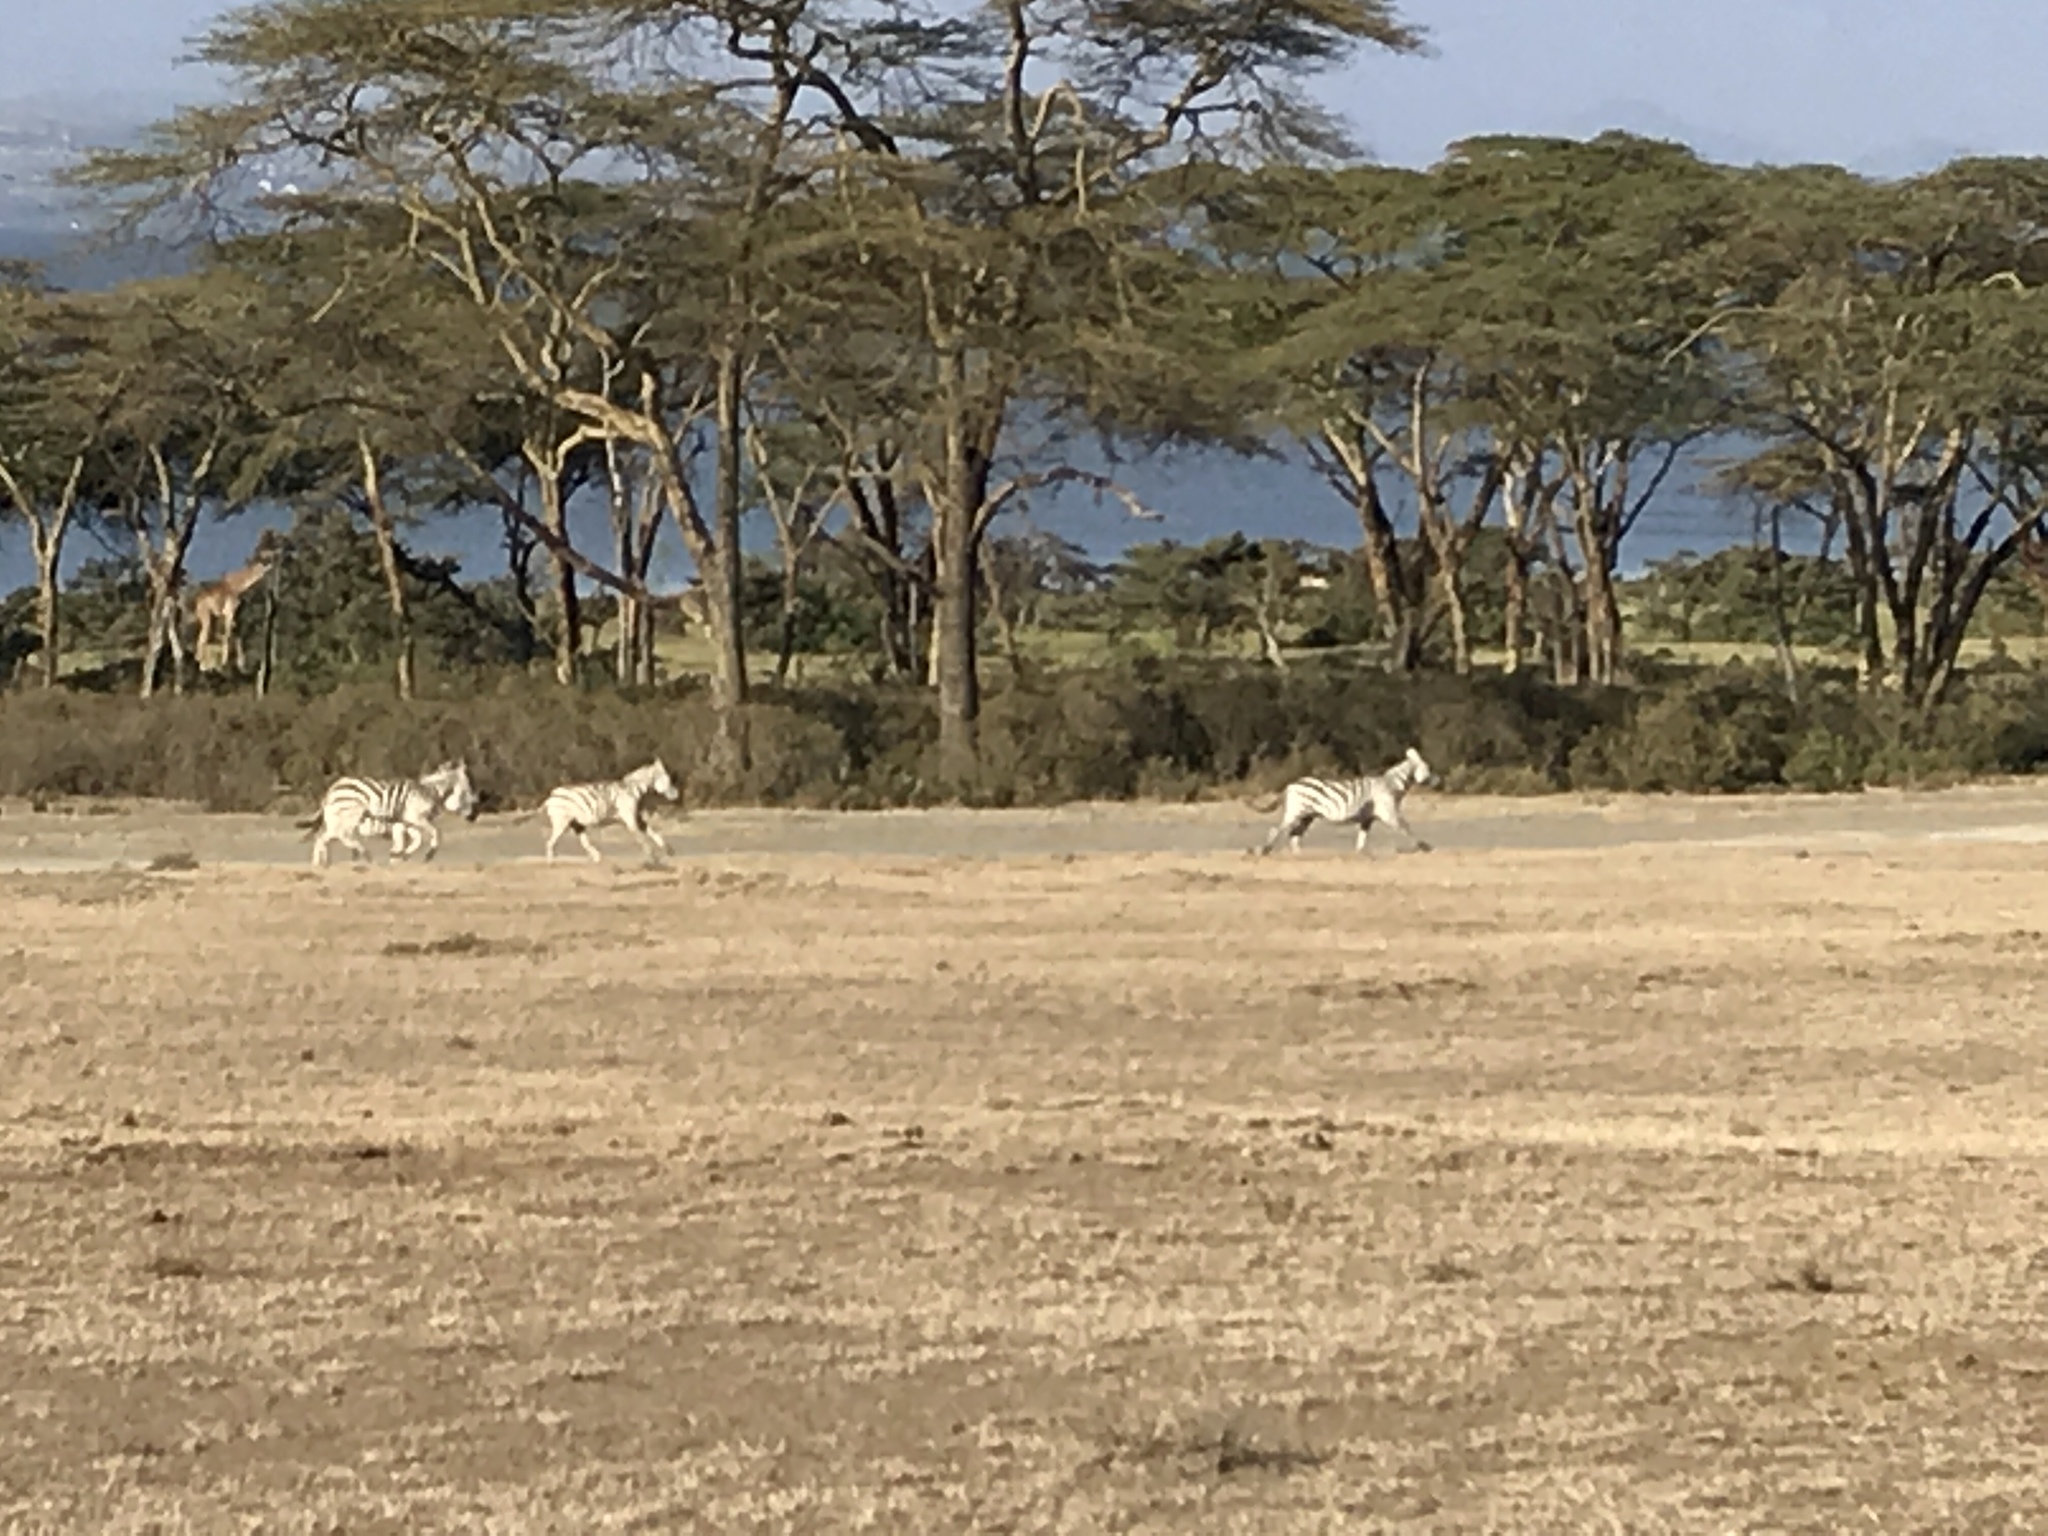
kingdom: Animalia
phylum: Chordata
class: Mammalia
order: Perissodactyla
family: Equidae
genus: Equus
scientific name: Equus quagga
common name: Plains zebra
